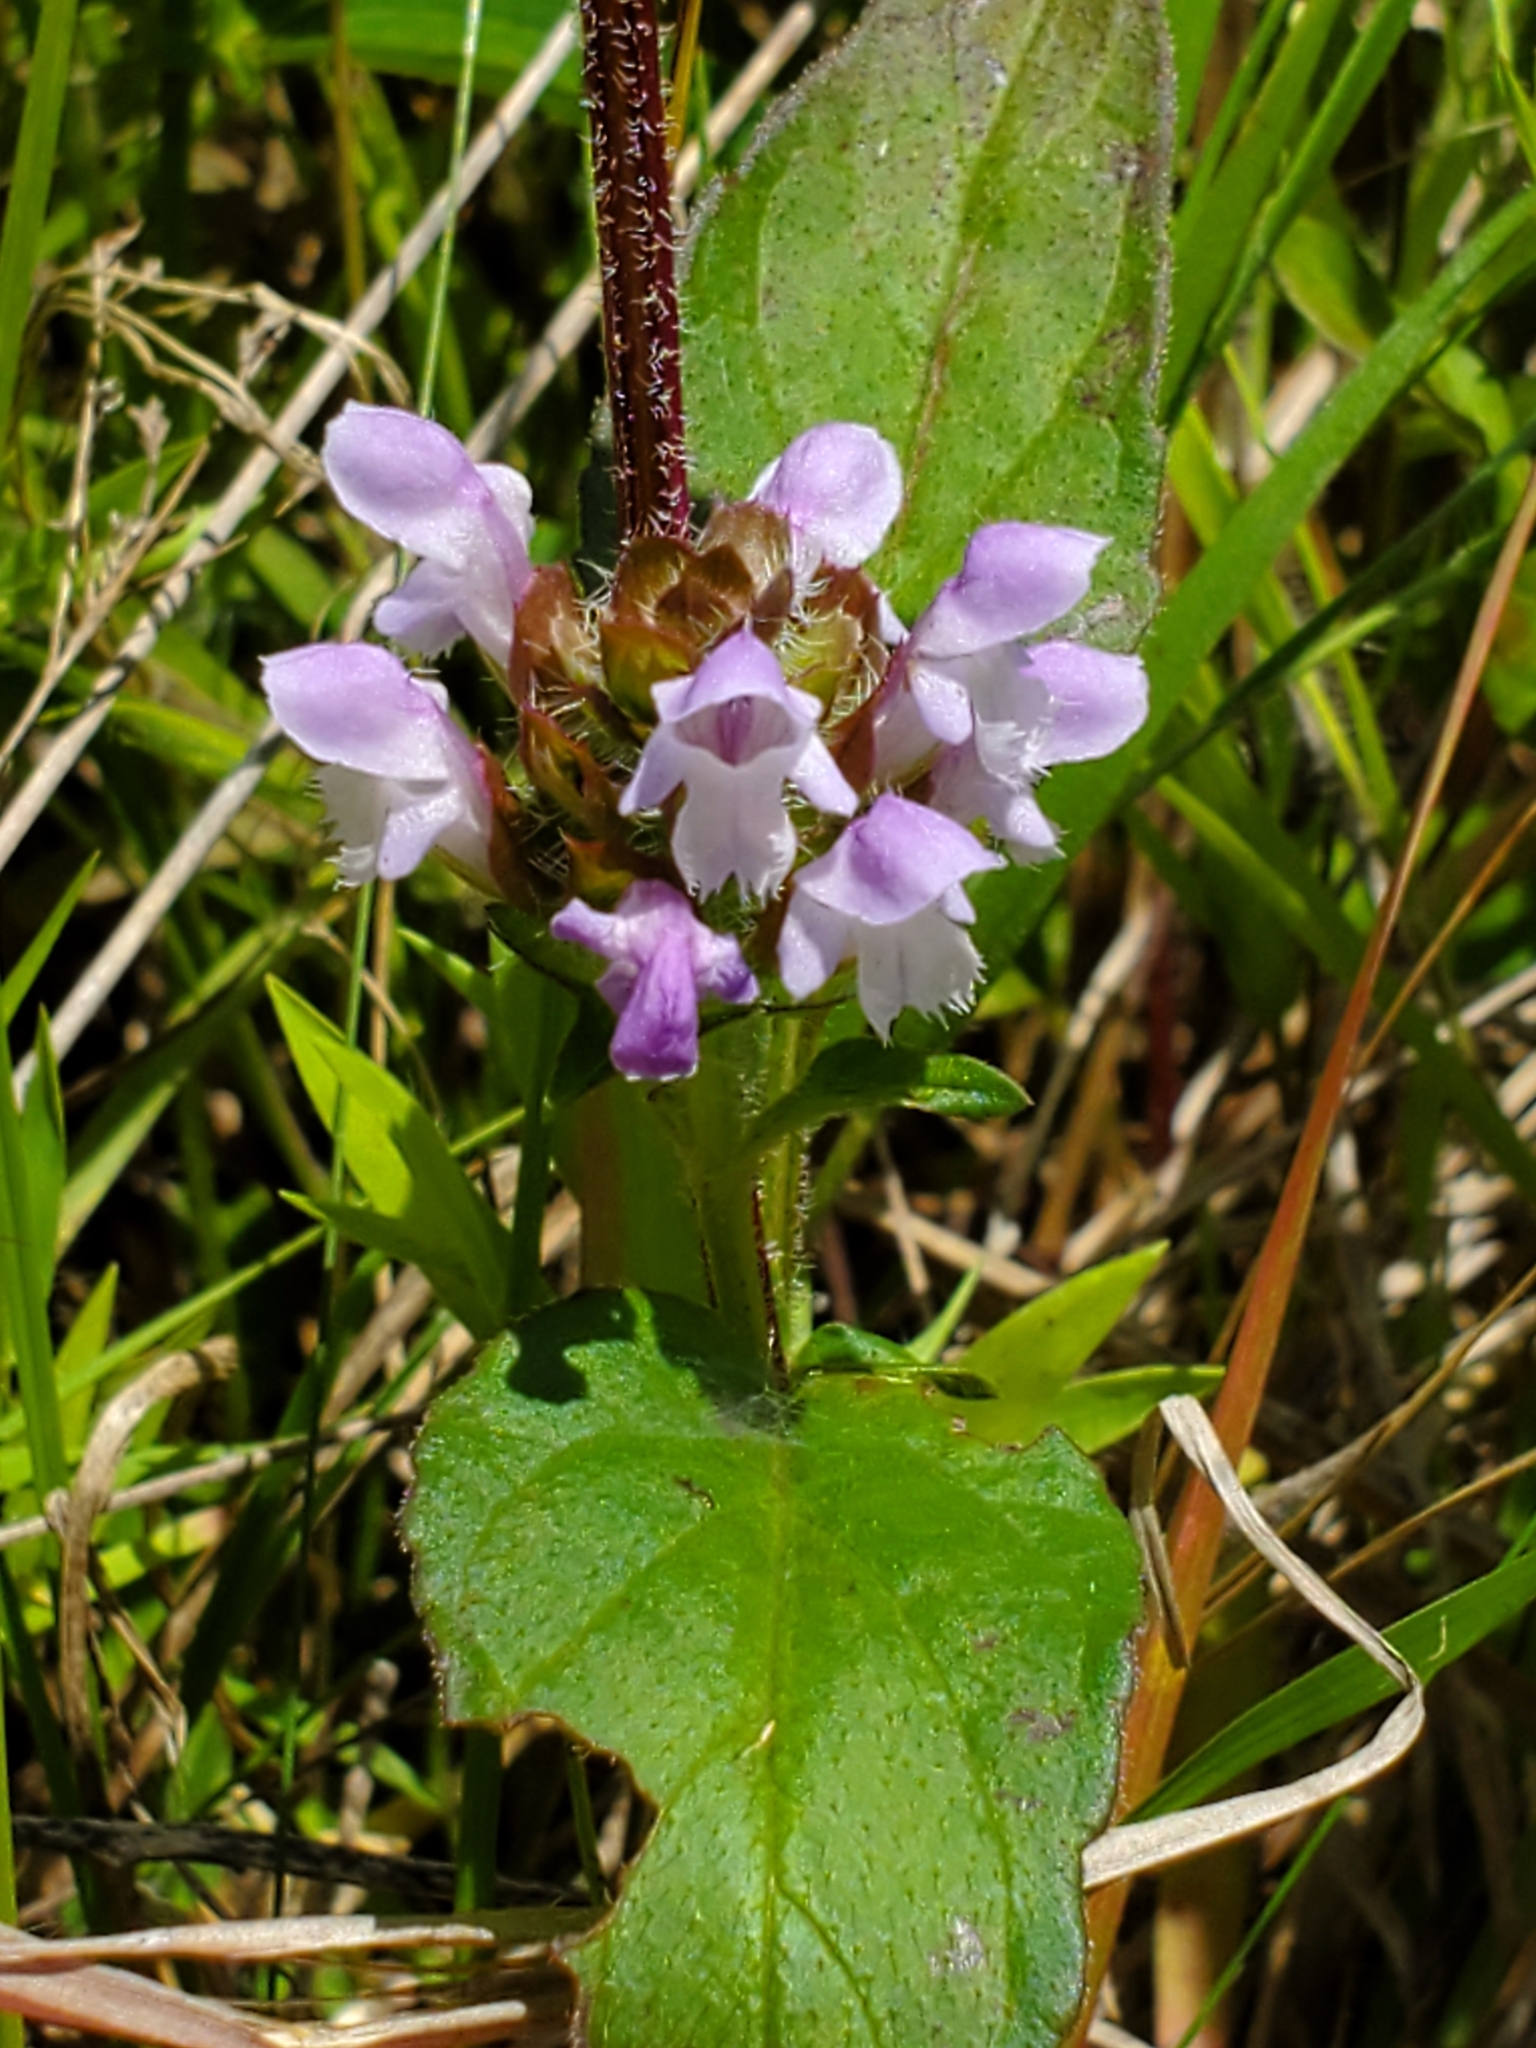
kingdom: Plantae
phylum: Tracheophyta
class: Magnoliopsida
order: Lamiales
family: Lamiaceae
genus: Prunella
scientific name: Prunella vulgaris
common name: Heal-all
